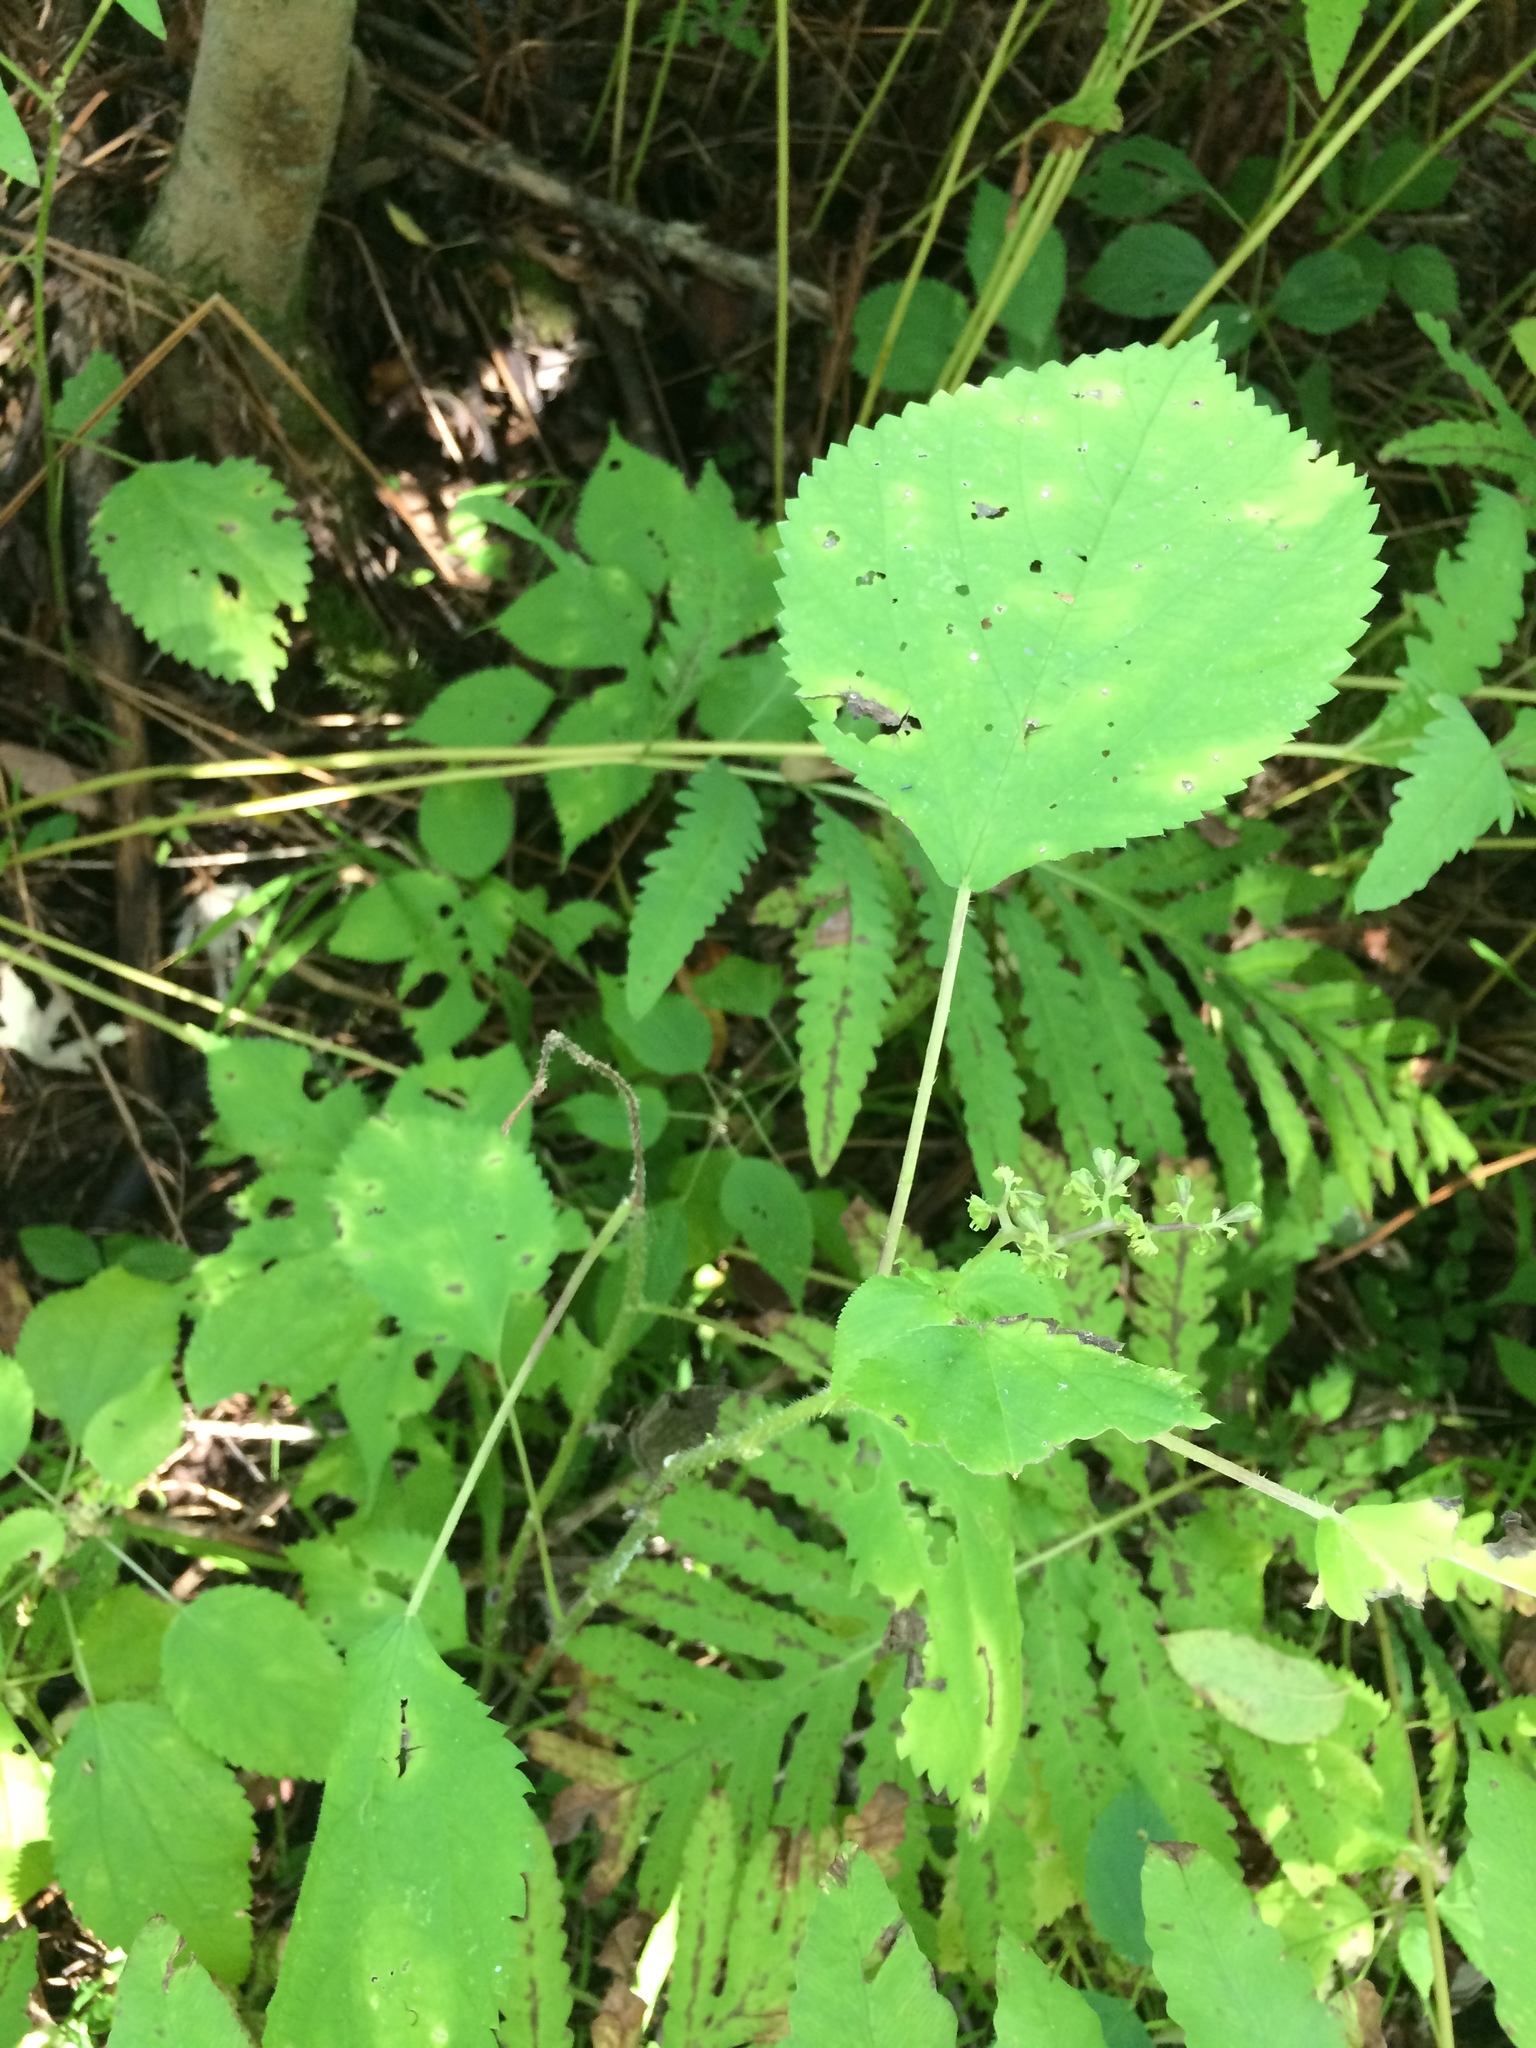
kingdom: Plantae
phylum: Tracheophyta
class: Magnoliopsida
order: Rosales
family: Urticaceae
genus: Laportea
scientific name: Laportea canadensis
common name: Canada nettle
